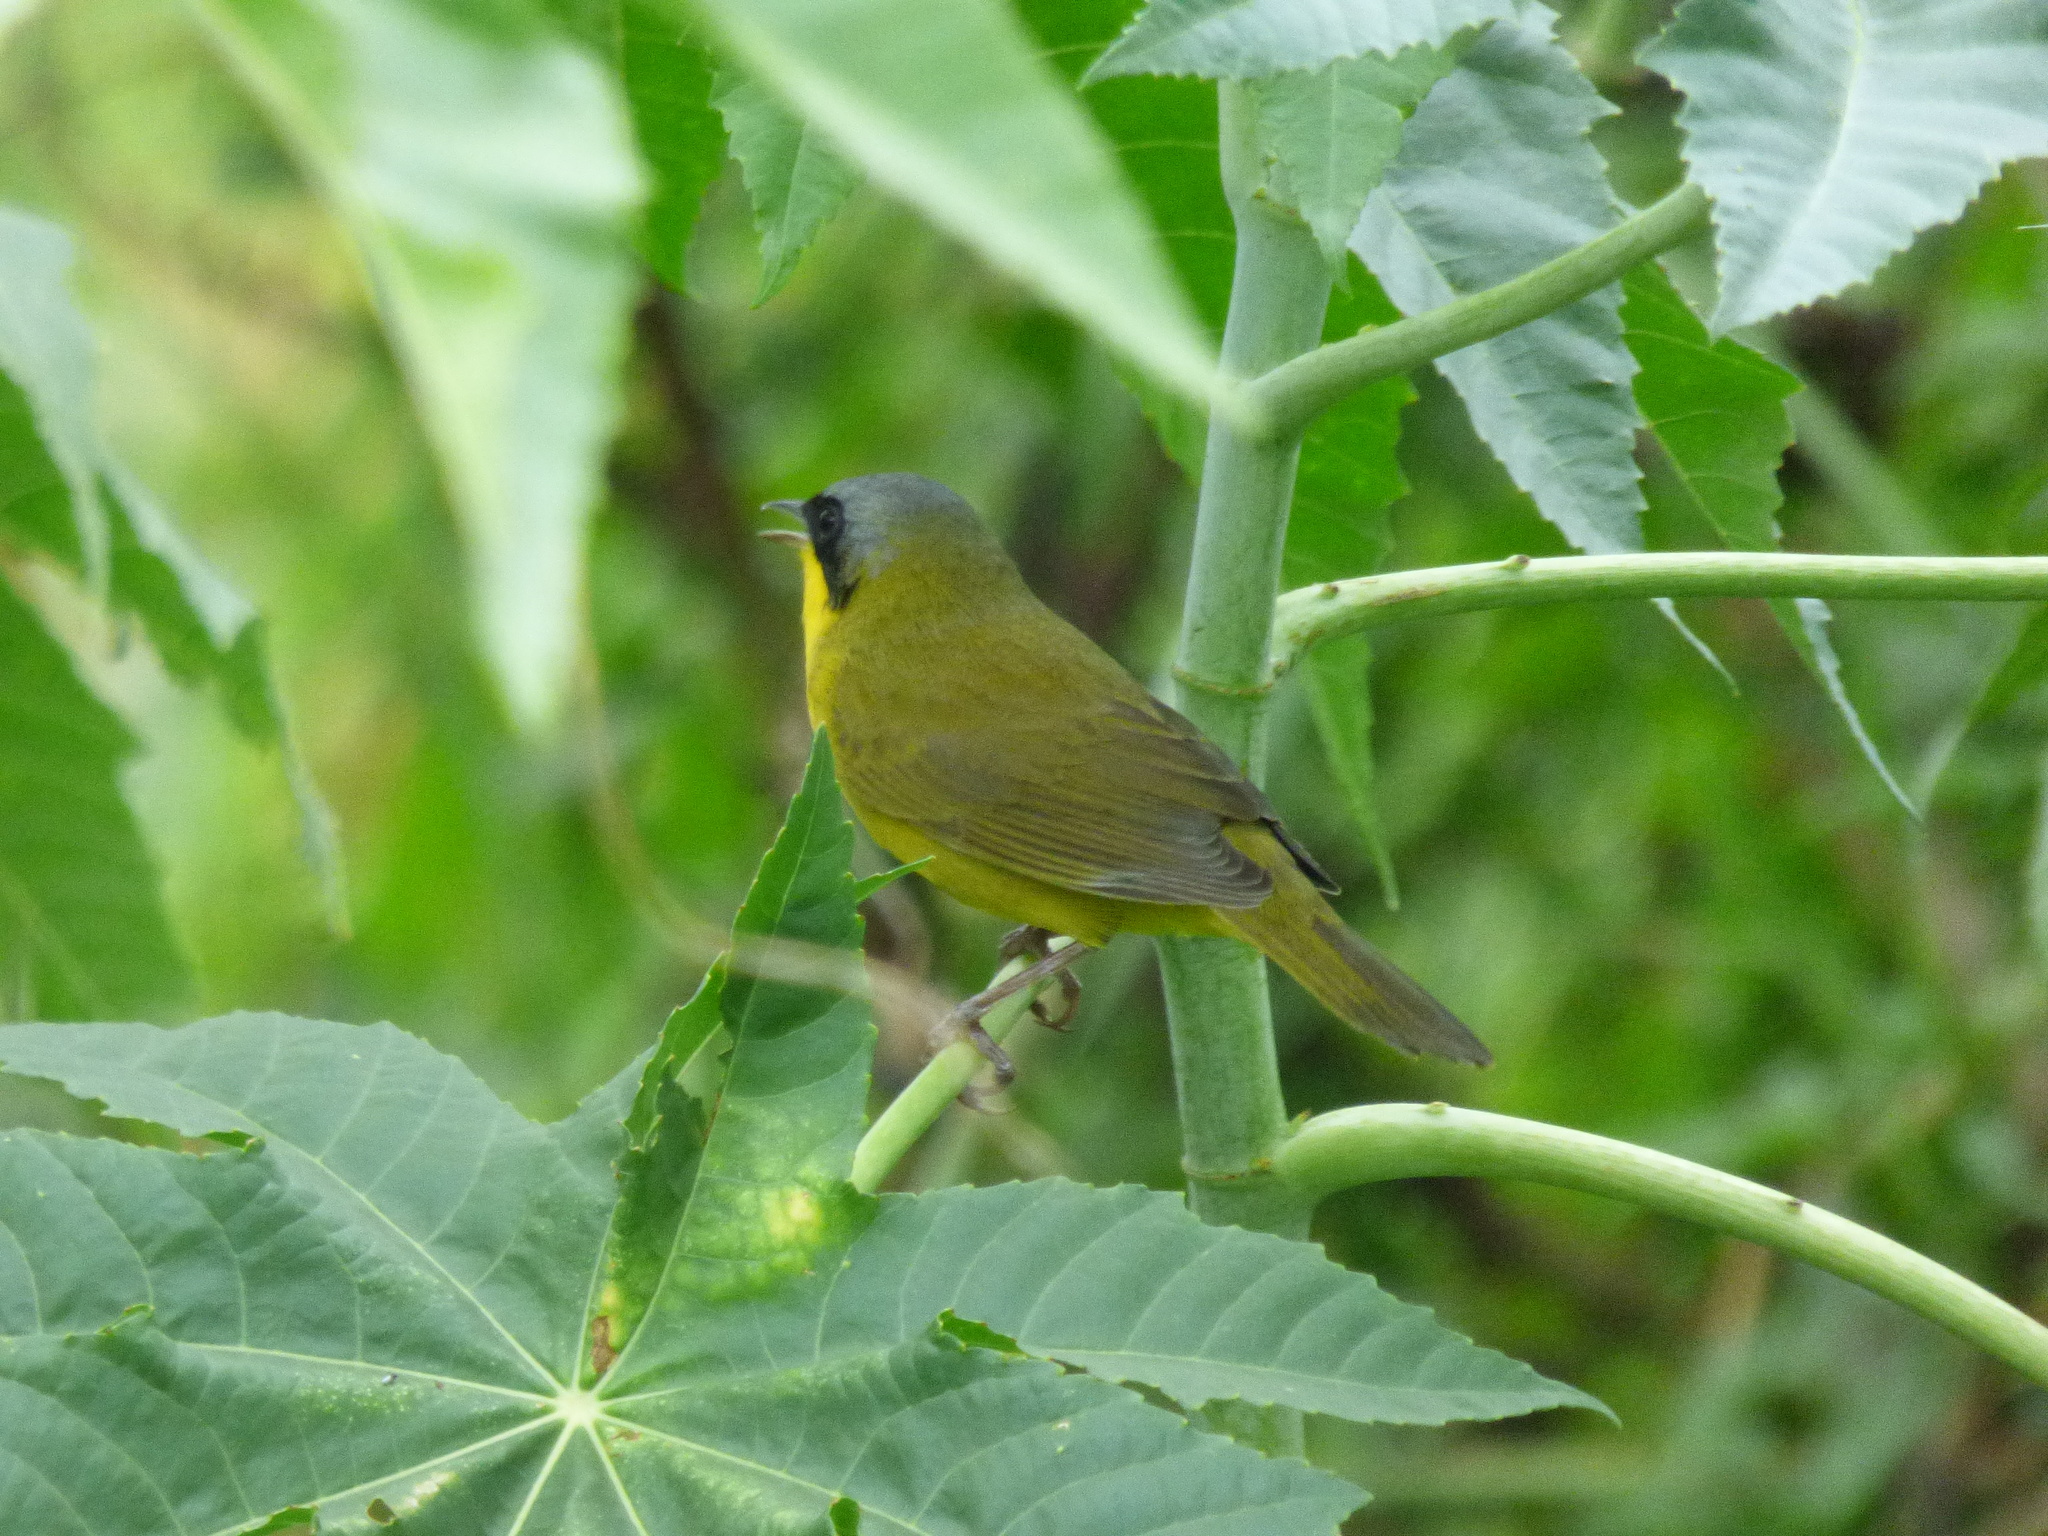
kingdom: Animalia
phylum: Chordata
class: Aves
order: Passeriformes
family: Parulidae
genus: Geothlypis
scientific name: Geothlypis velata
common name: Southern yellowthroat
